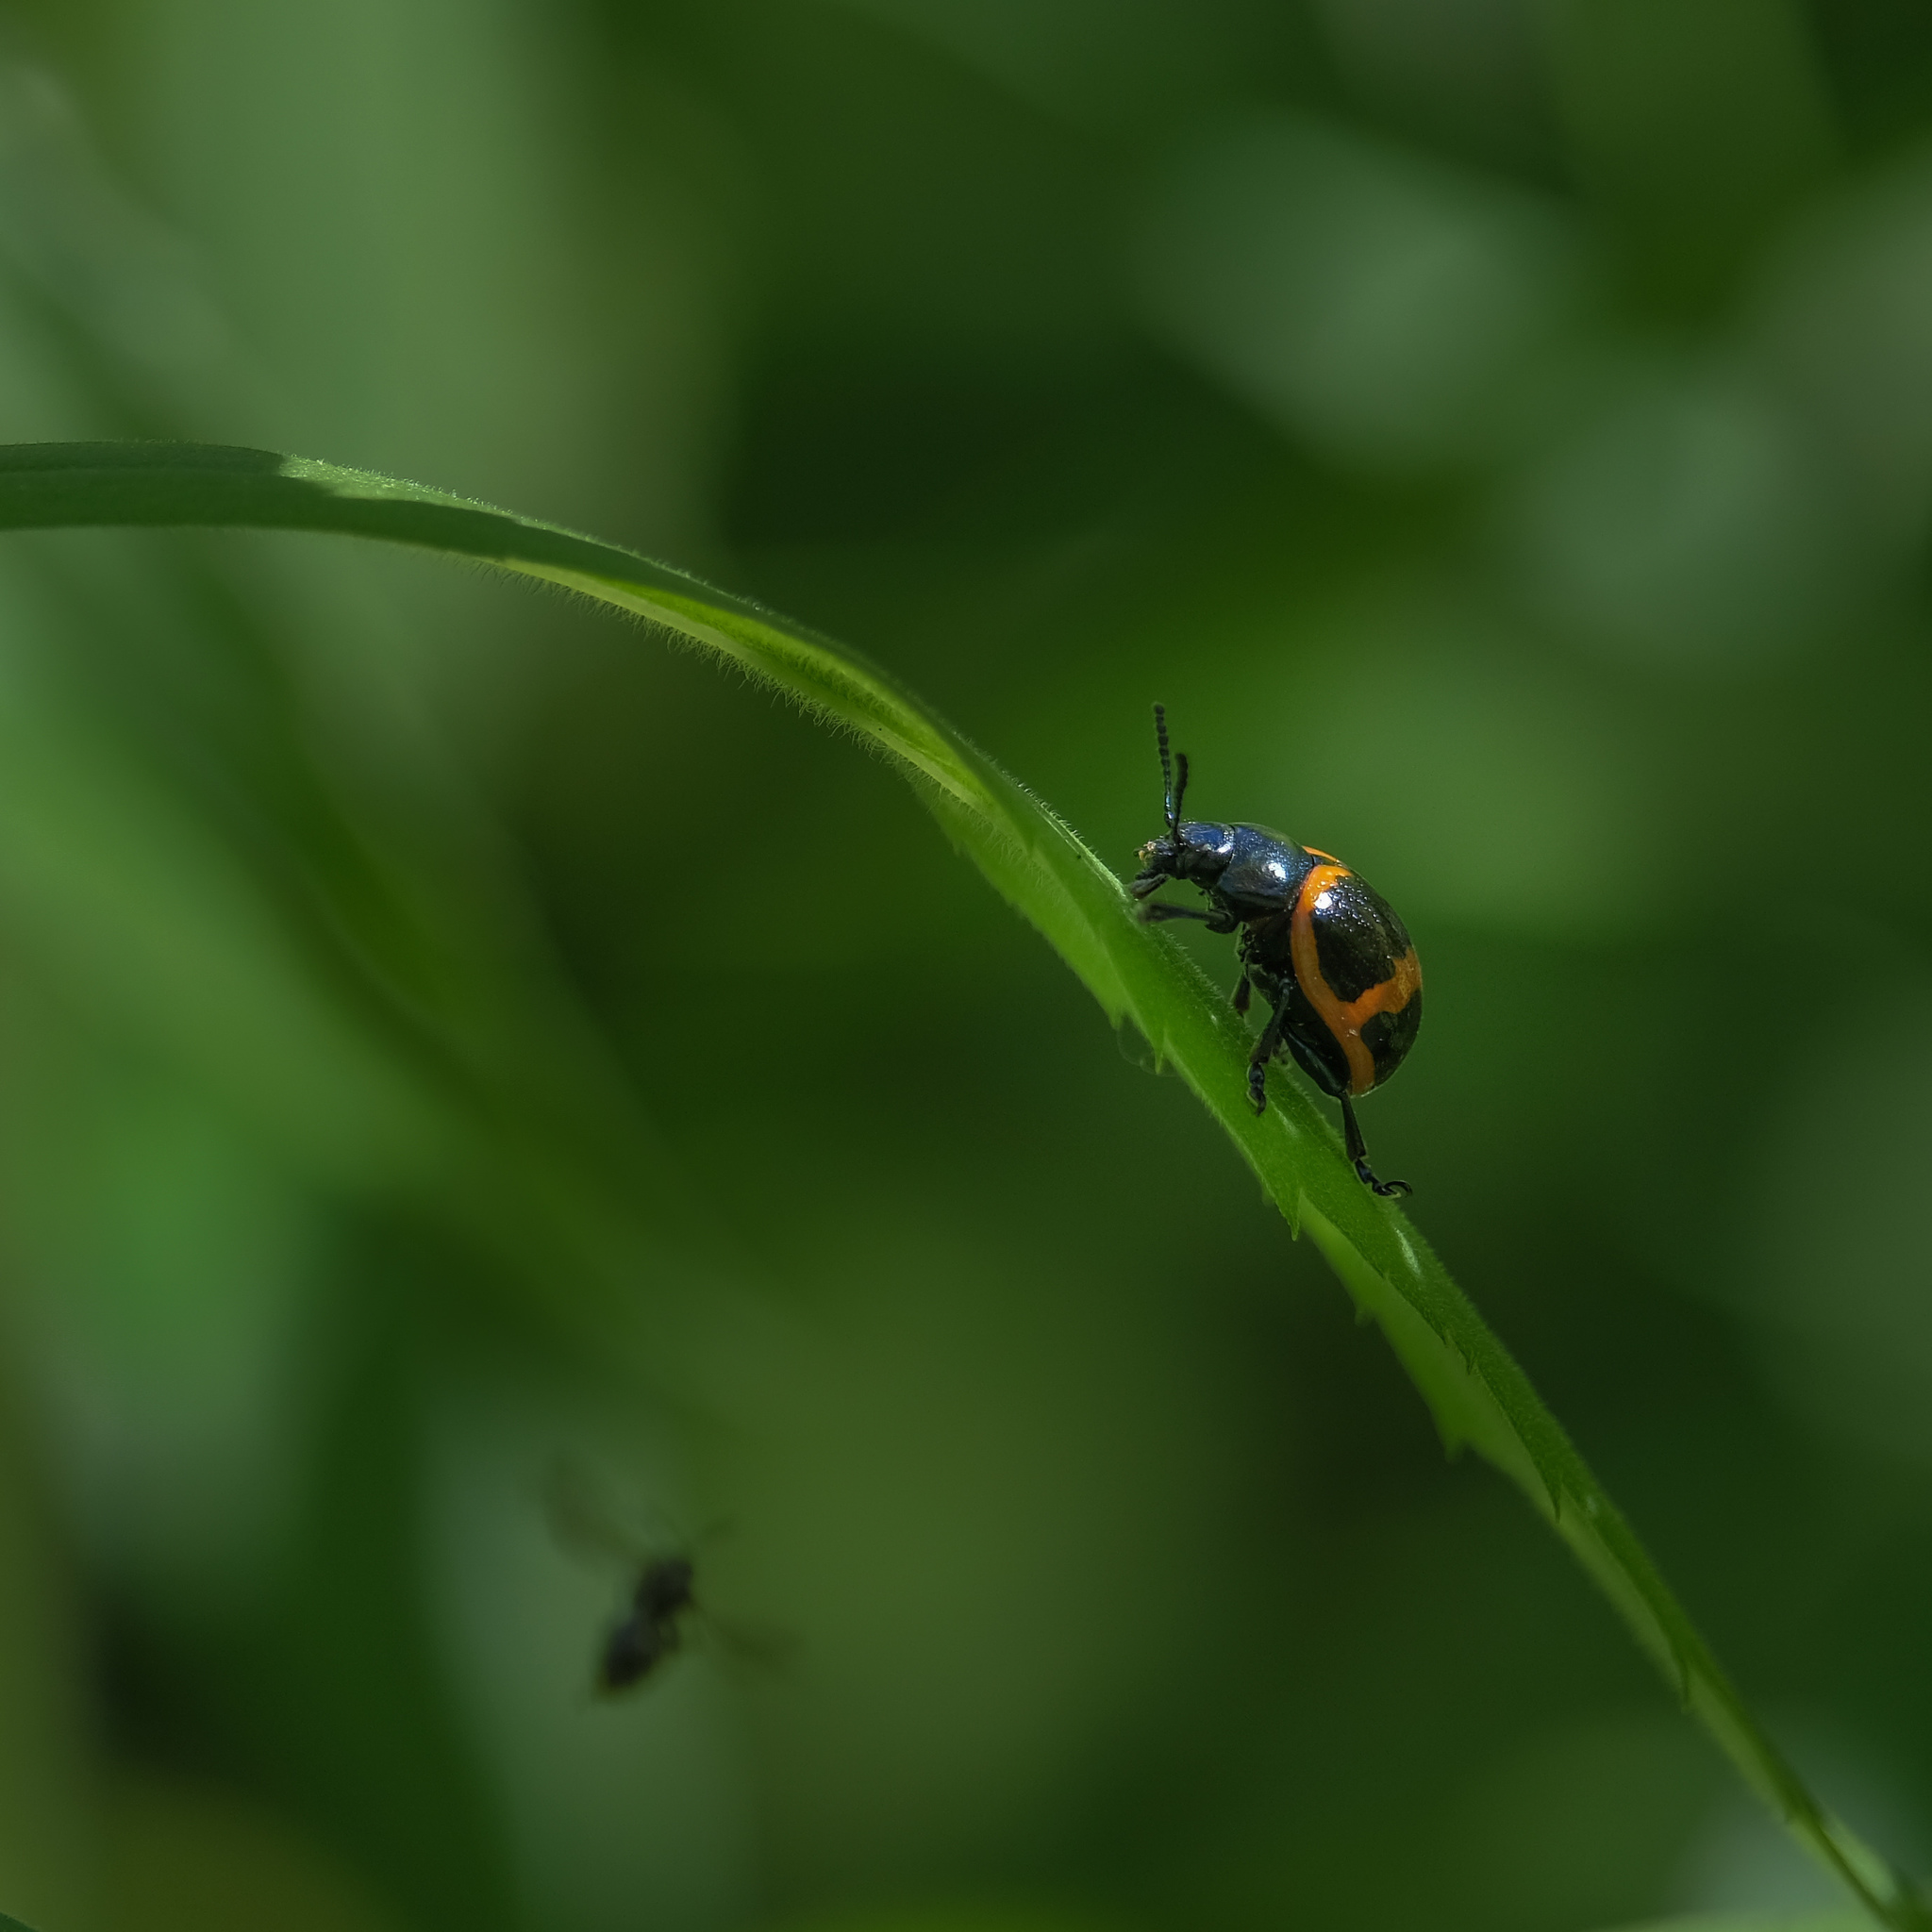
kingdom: Animalia
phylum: Arthropoda
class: Insecta
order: Coleoptera
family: Chrysomelidae
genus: Labidomera
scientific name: Labidomera clivicollis
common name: Swamp milkweed leaf beetle
